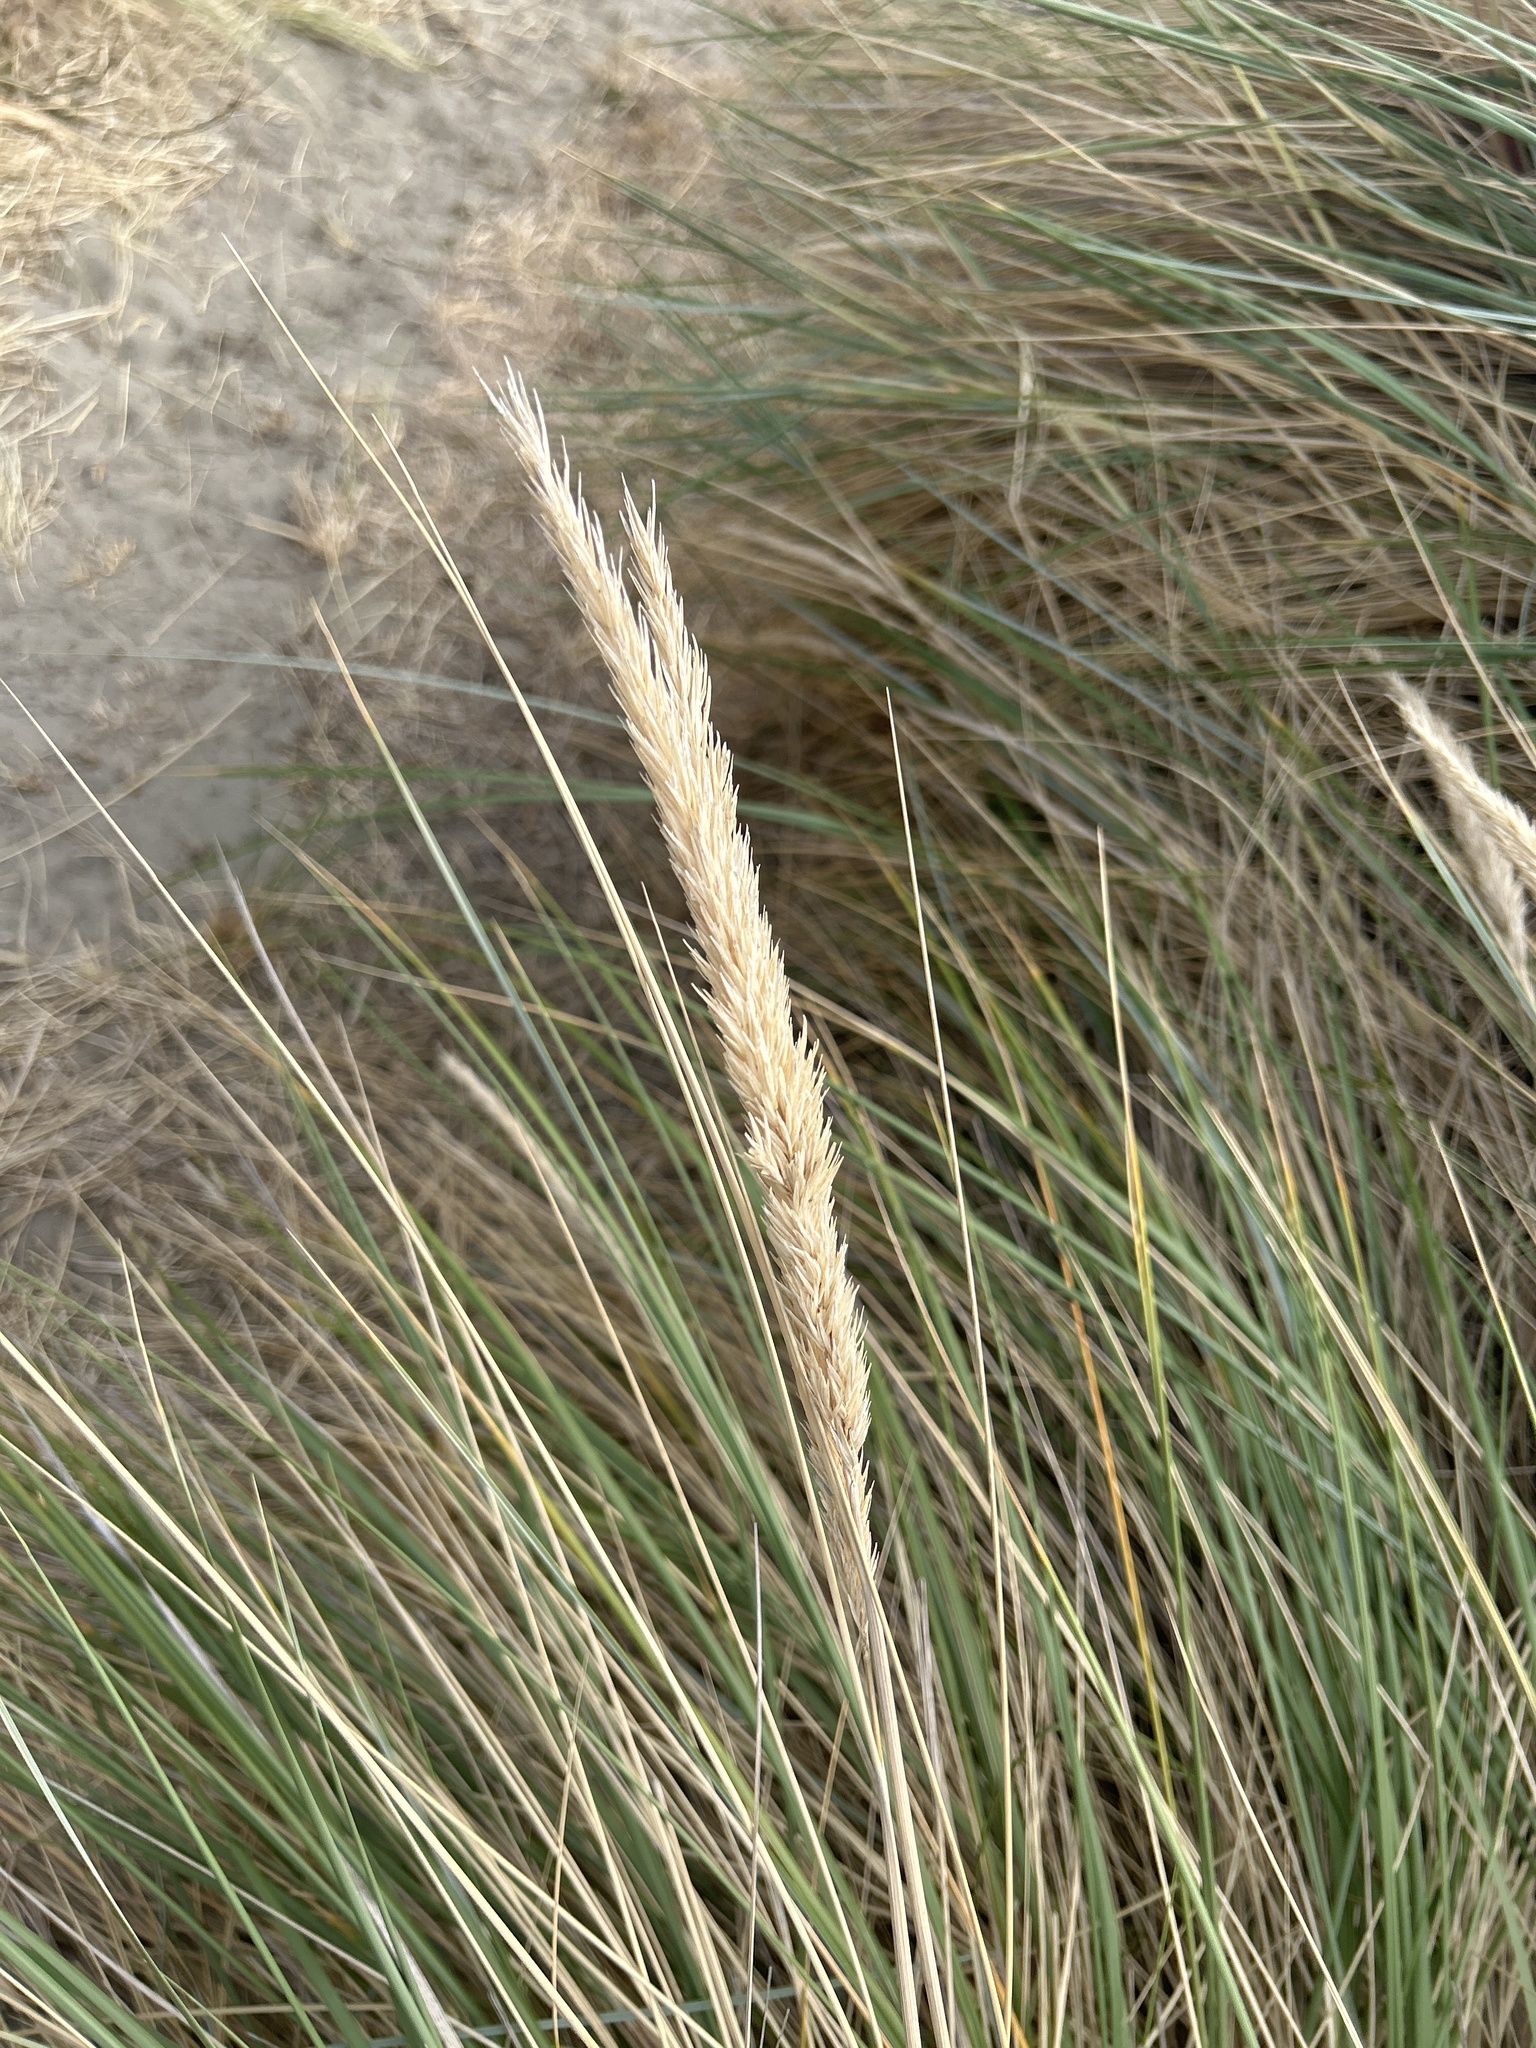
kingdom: Plantae
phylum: Tracheophyta
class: Liliopsida
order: Poales
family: Poaceae
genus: Calamagrostis
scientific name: Calamagrostis arenaria
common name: European beachgrass
